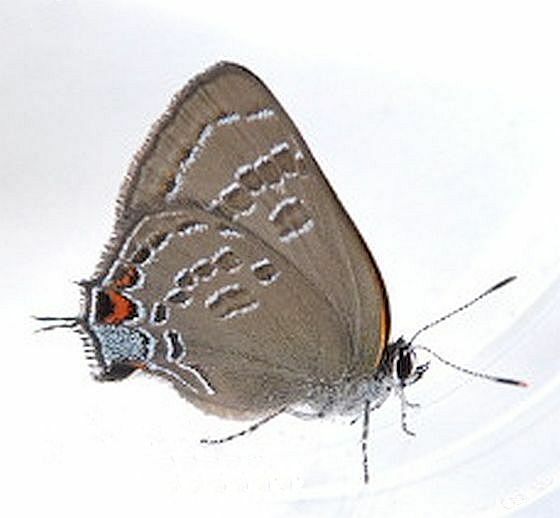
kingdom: Animalia
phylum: Arthropoda
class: Insecta
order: Lepidoptera
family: Lycaenidae
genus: Satyrium
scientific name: Satyrium calanus
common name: Banded hairstreak
